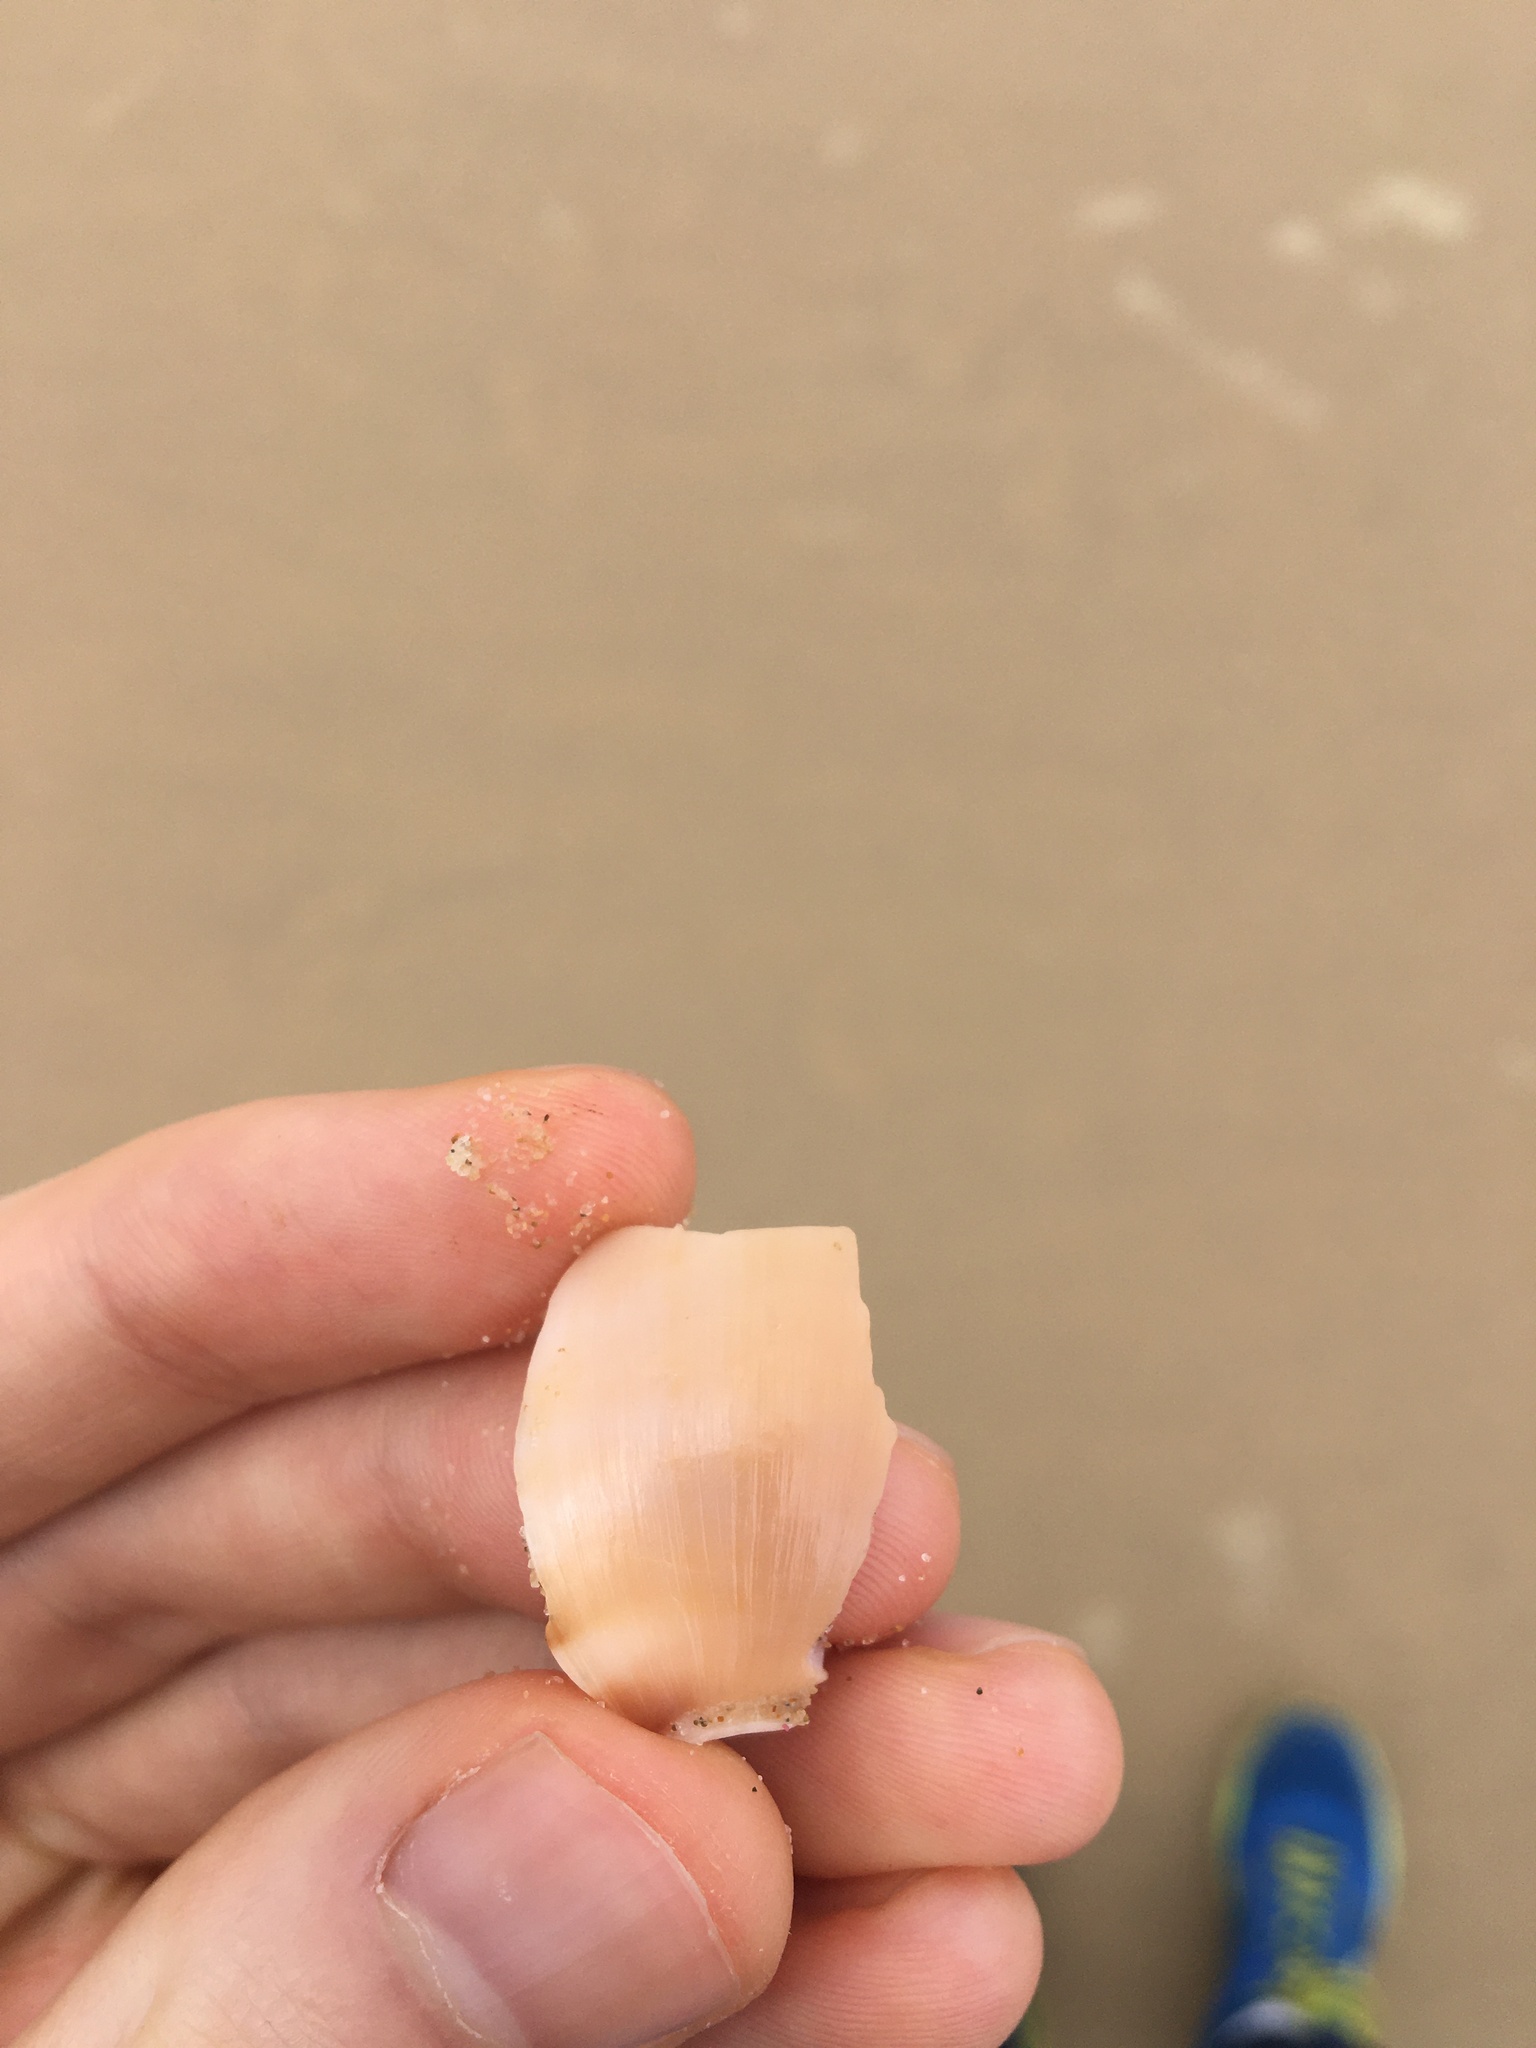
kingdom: Animalia
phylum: Mollusca
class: Gastropoda
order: Littorinimorpha
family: Cassidae
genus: Semicassis
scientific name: Semicassis labiata
